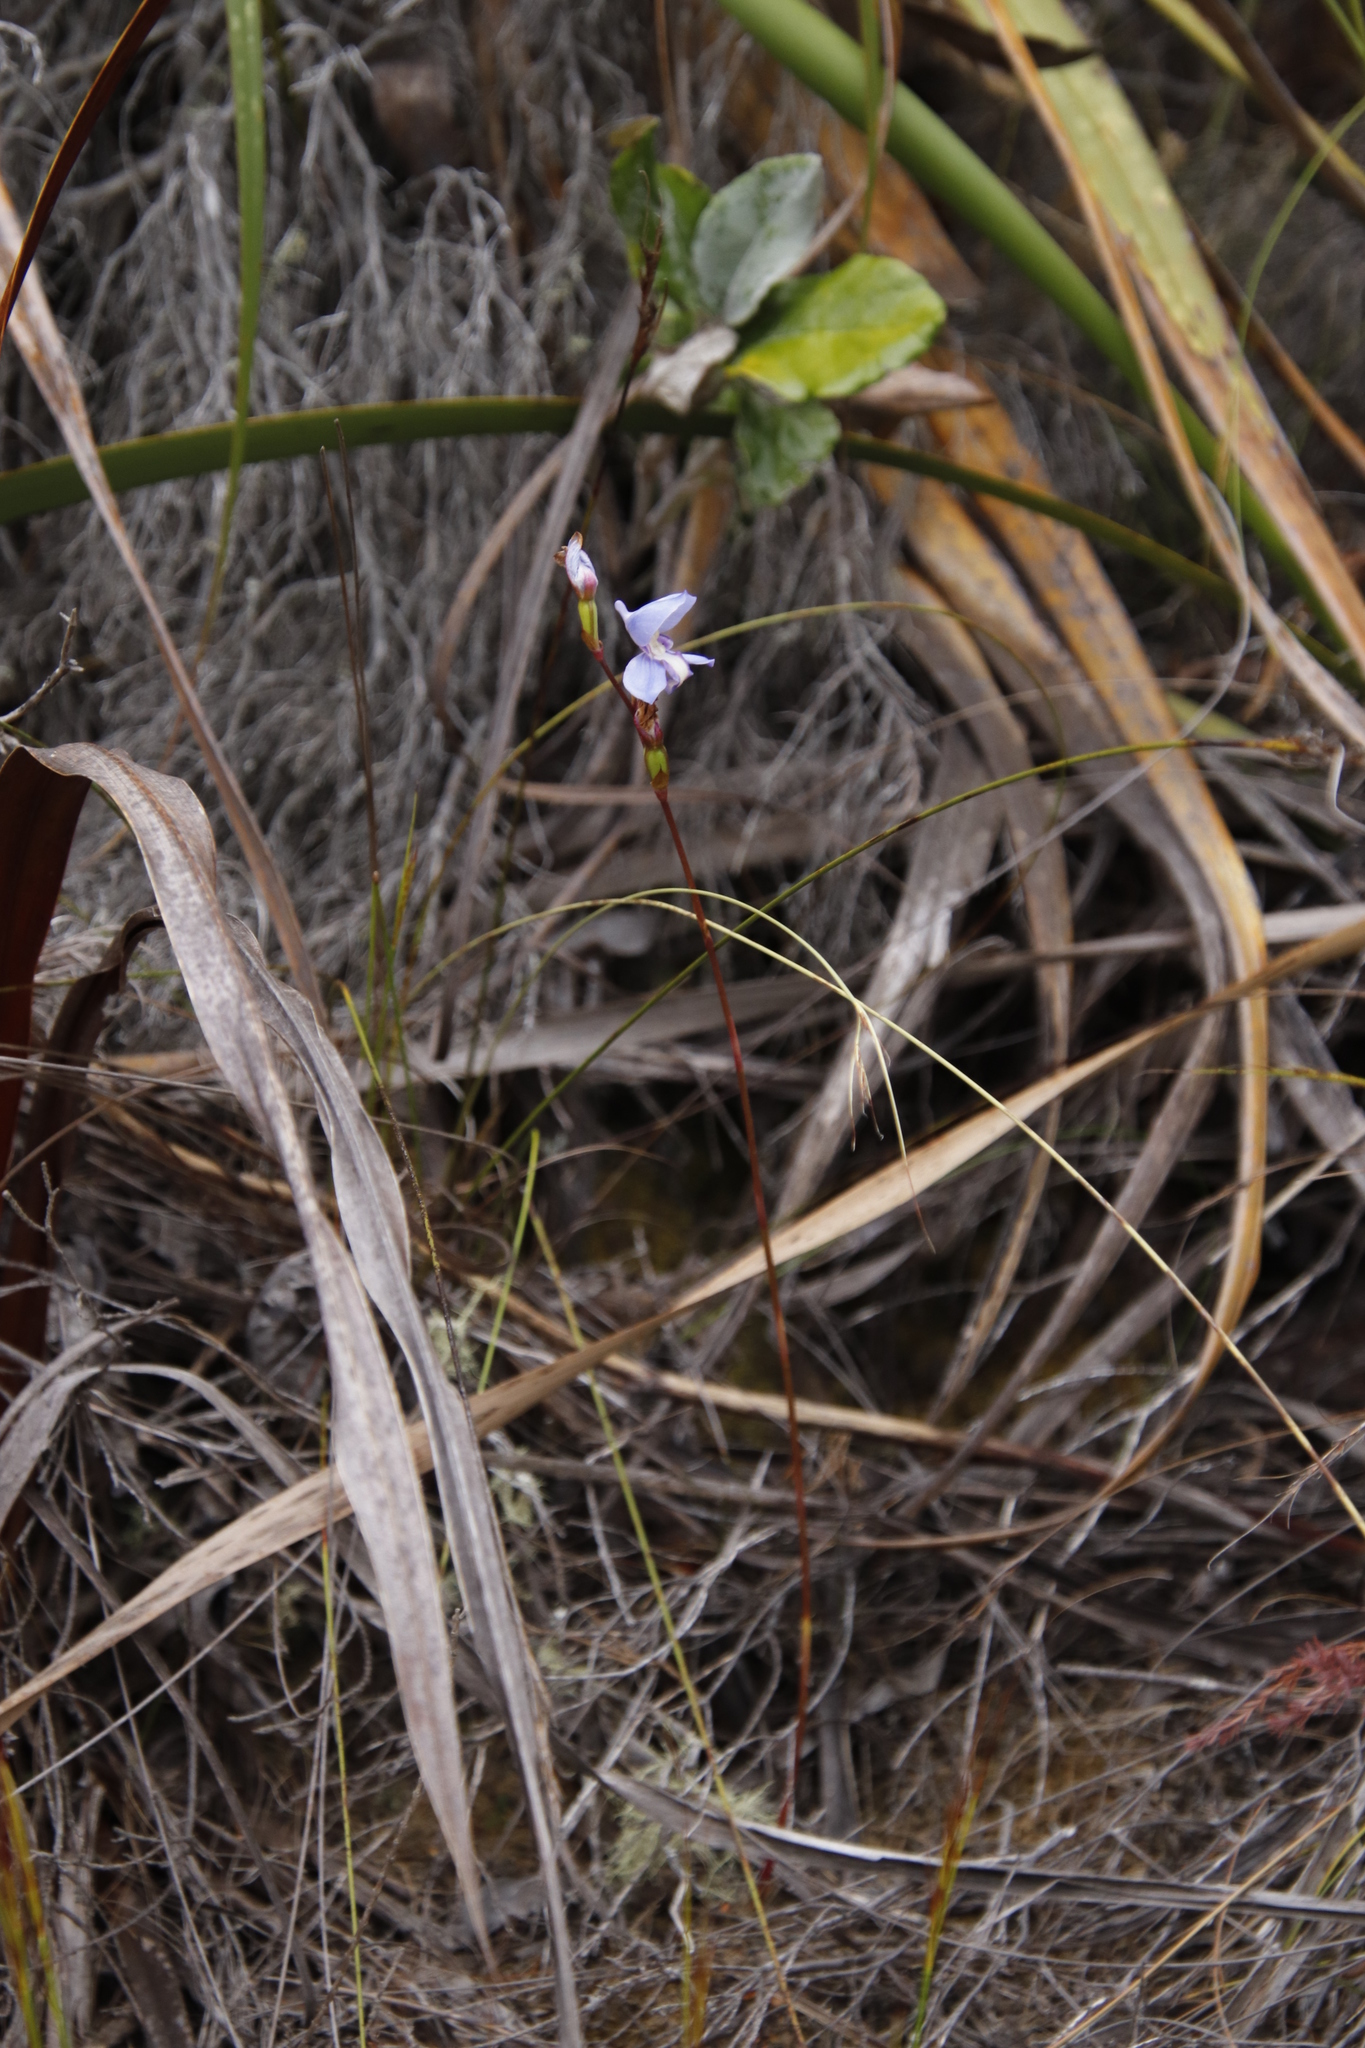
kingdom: Plantae
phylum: Tracheophyta
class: Liliopsida
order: Asparagales
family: Orchidaceae
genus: Disa
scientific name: Disa graminifolia
